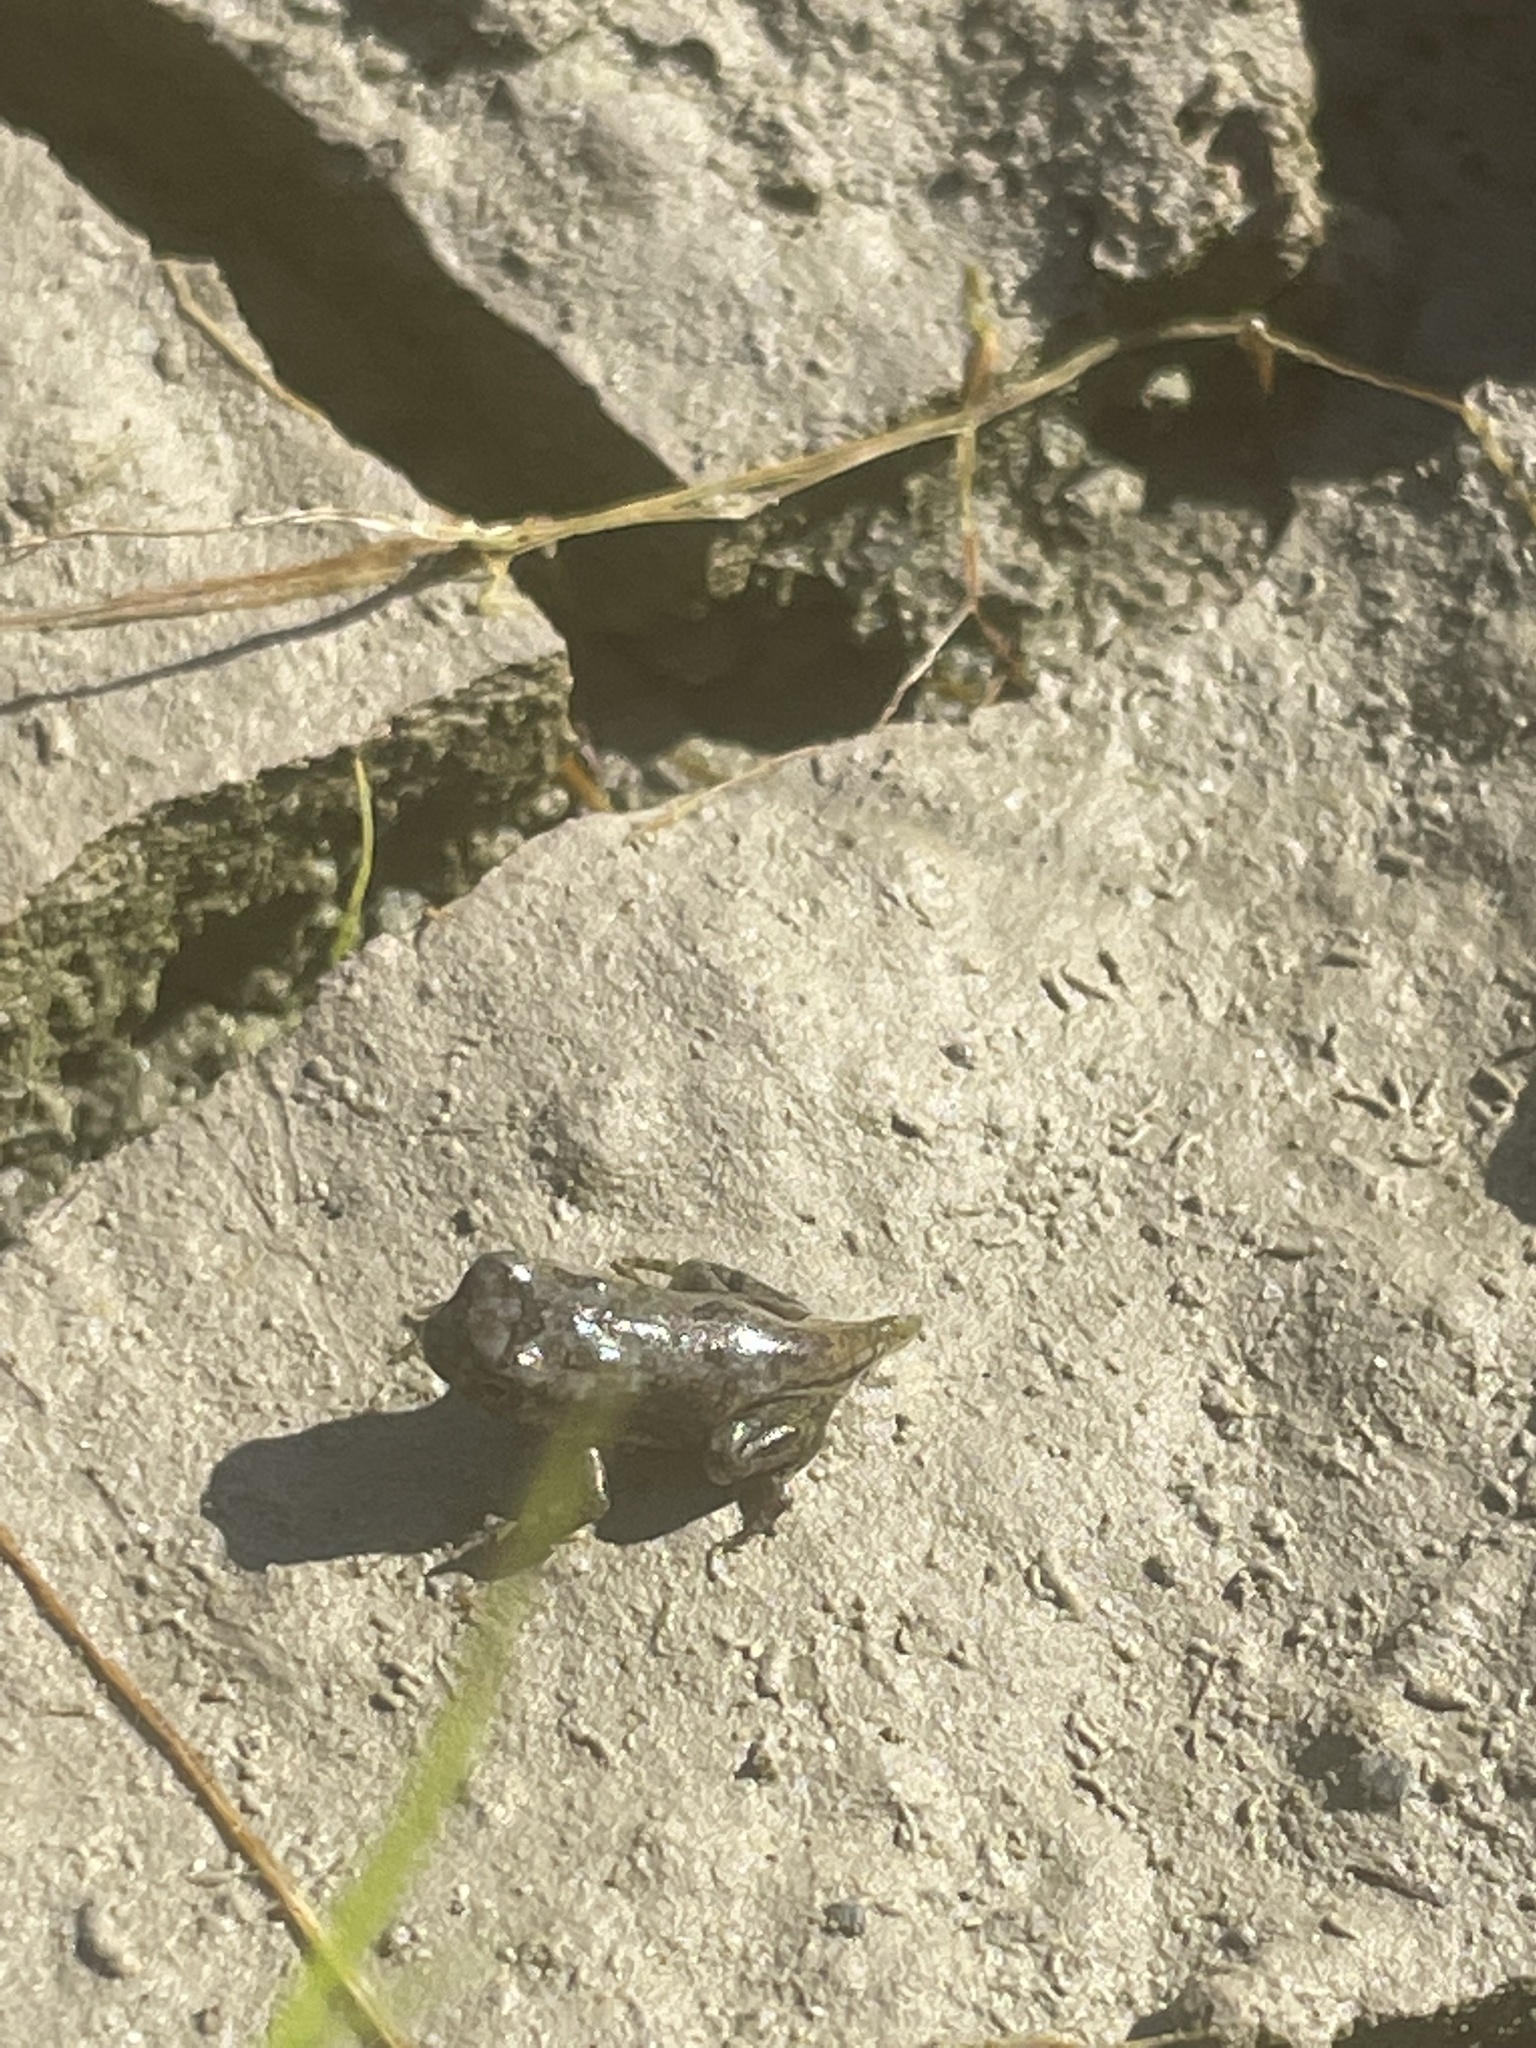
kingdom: Animalia
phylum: Chordata
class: Amphibia
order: Anura
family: Bufonidae
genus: Anaxyrus
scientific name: Anaxyrus fowleri
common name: Fowler's toad
